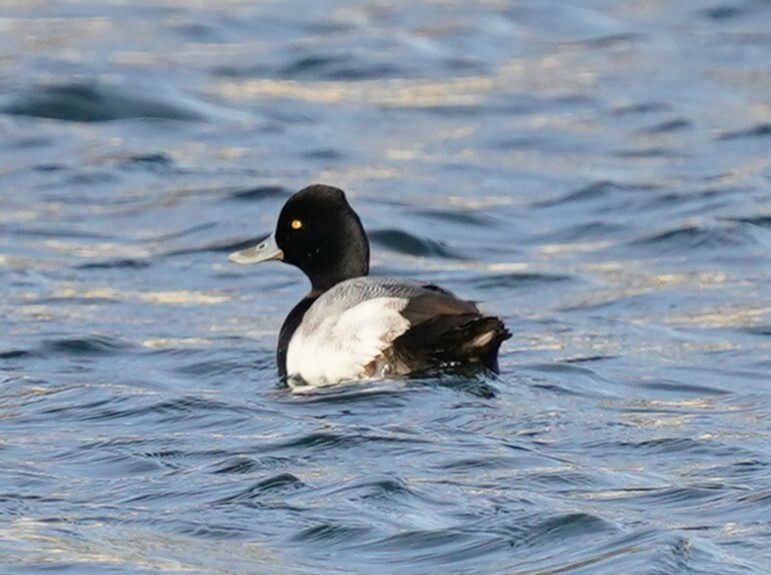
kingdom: Animalia
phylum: Chordata
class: Aves
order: Anseriformes
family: Anatidae
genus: Aythya
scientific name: Aythya affinis
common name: Lesser scaup
